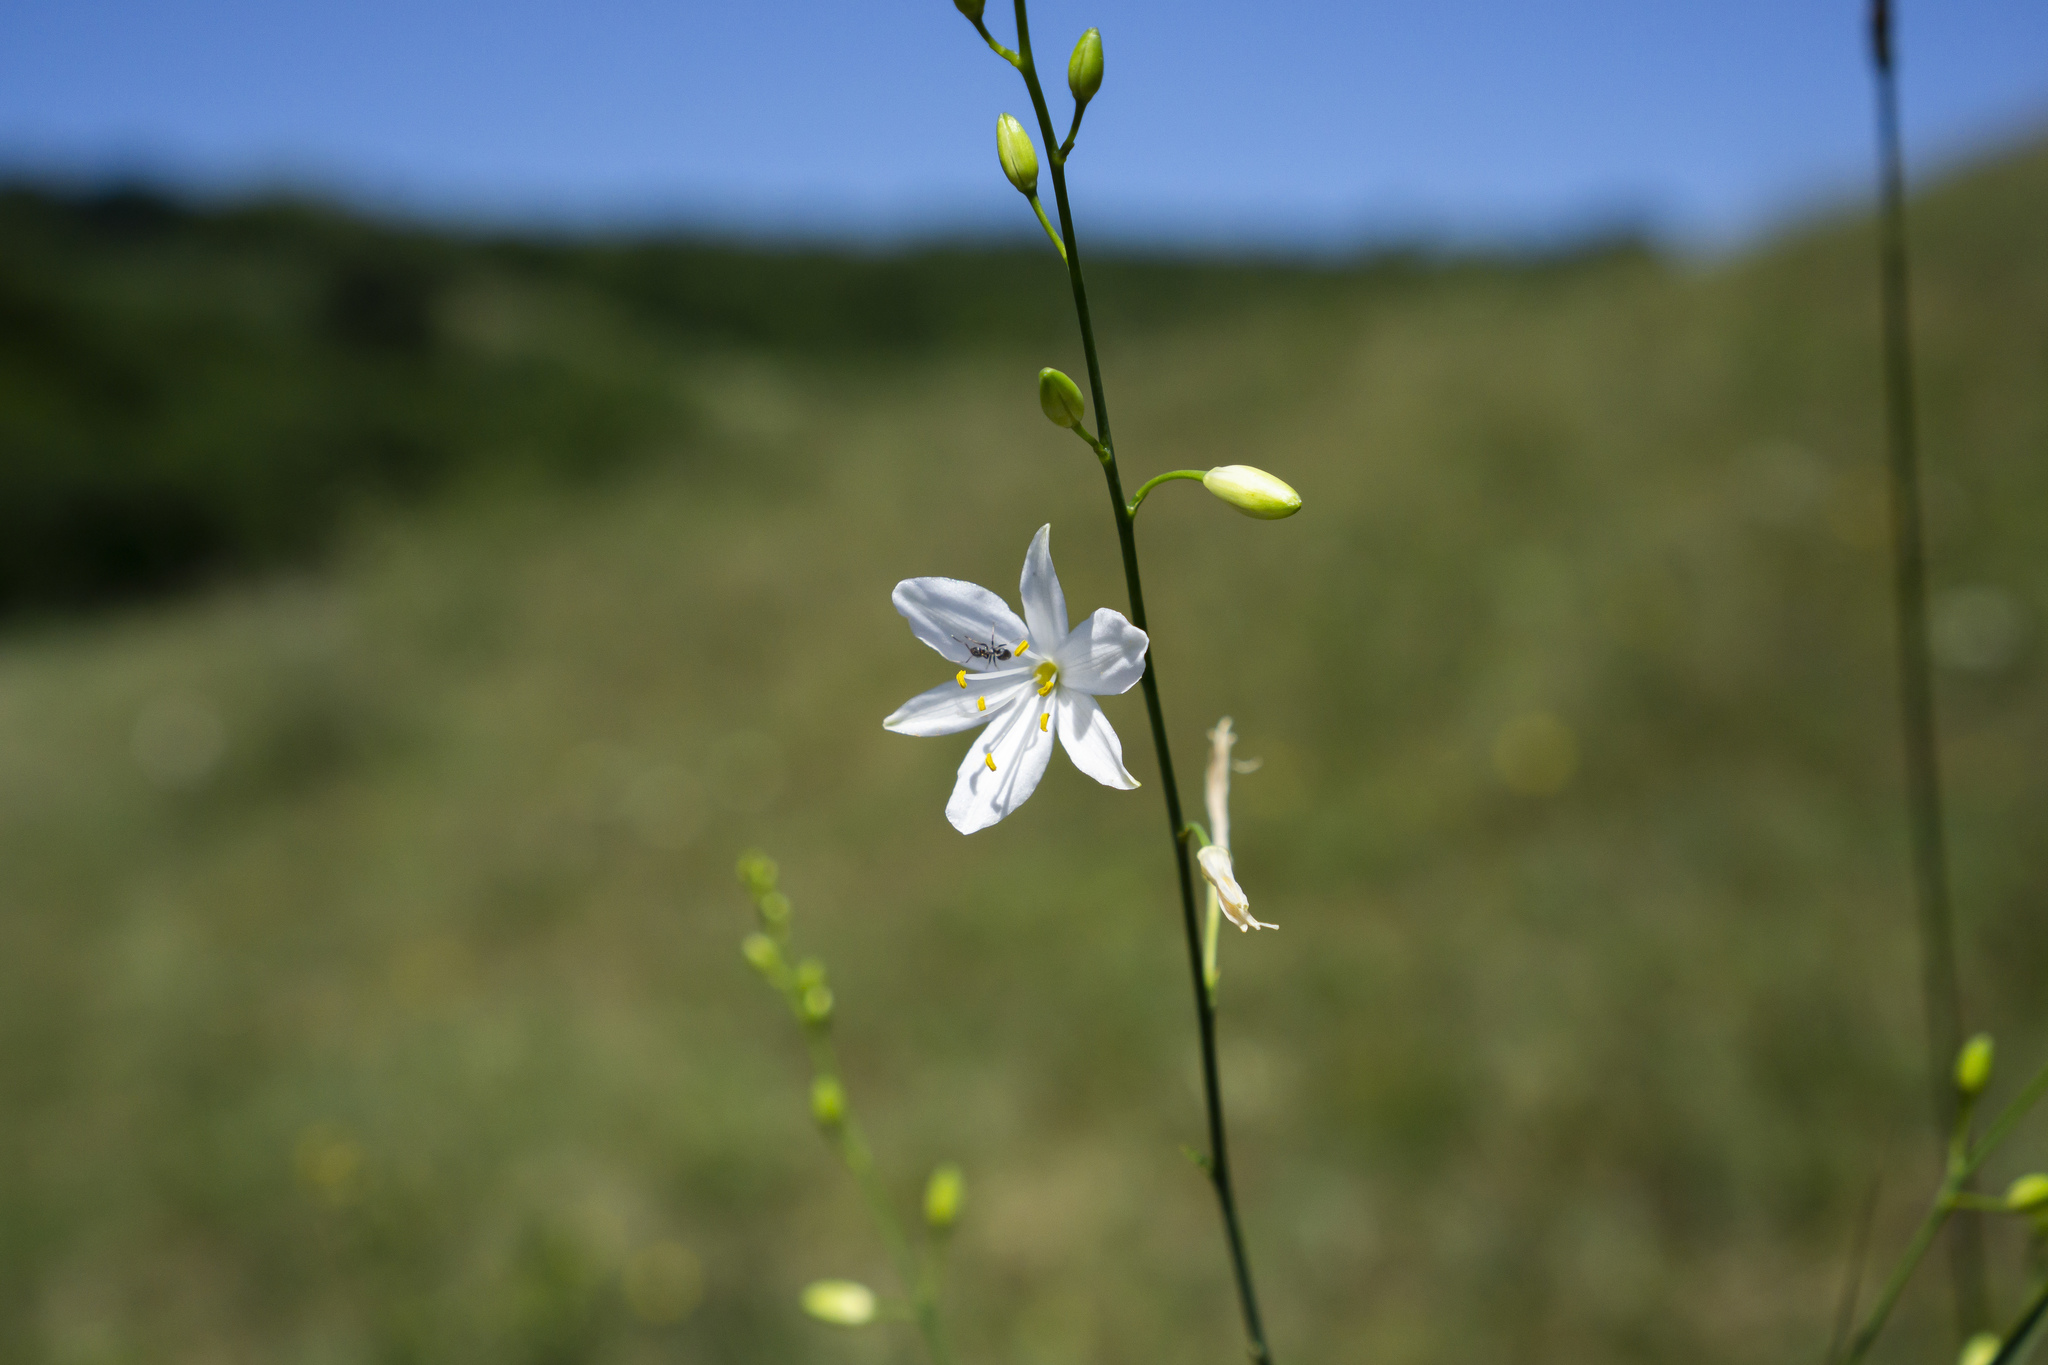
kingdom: Plantae
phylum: Tracheophyta
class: Liliopsida
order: Asparagales
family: Asparagaceae
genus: Anthericum
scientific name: Anthericum ramosum
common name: Branched st. bernard's-lily
